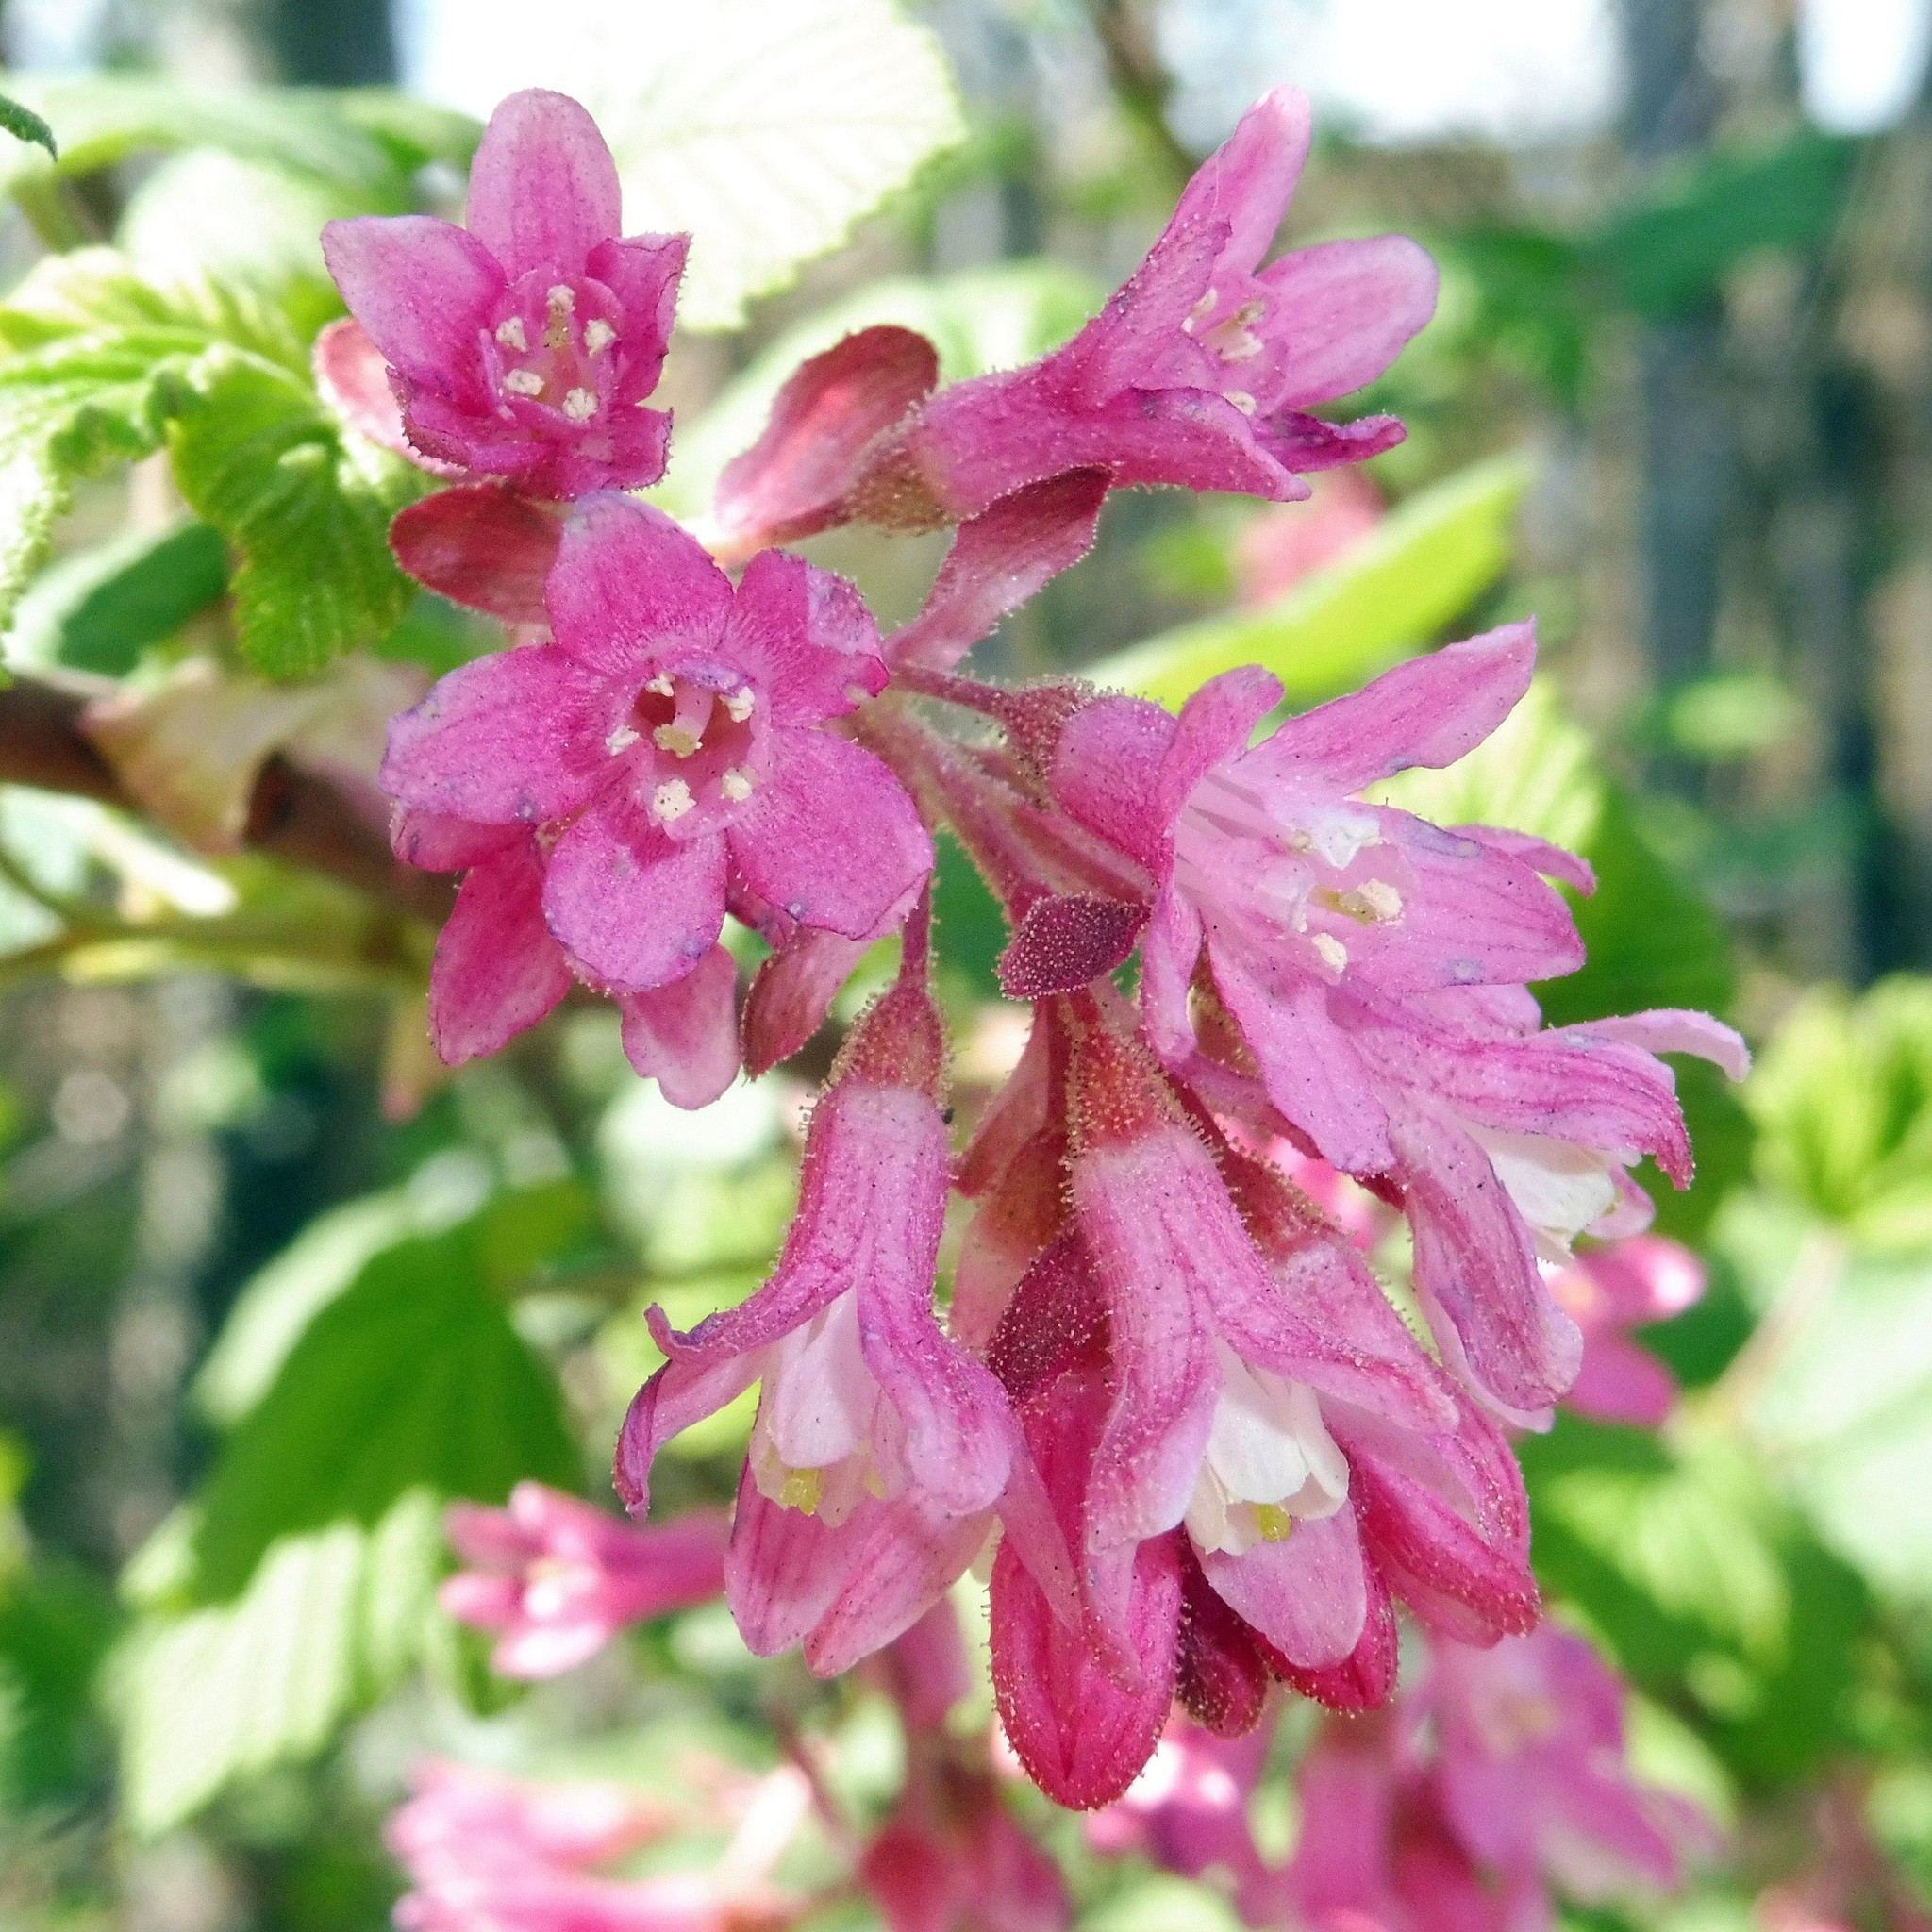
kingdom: Plantae
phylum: Tracheophyta
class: Magnoliopsida
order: Saxifragales
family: Grossulariaceae
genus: Ribes
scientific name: Ribes sanguineum
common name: Flowering currant
